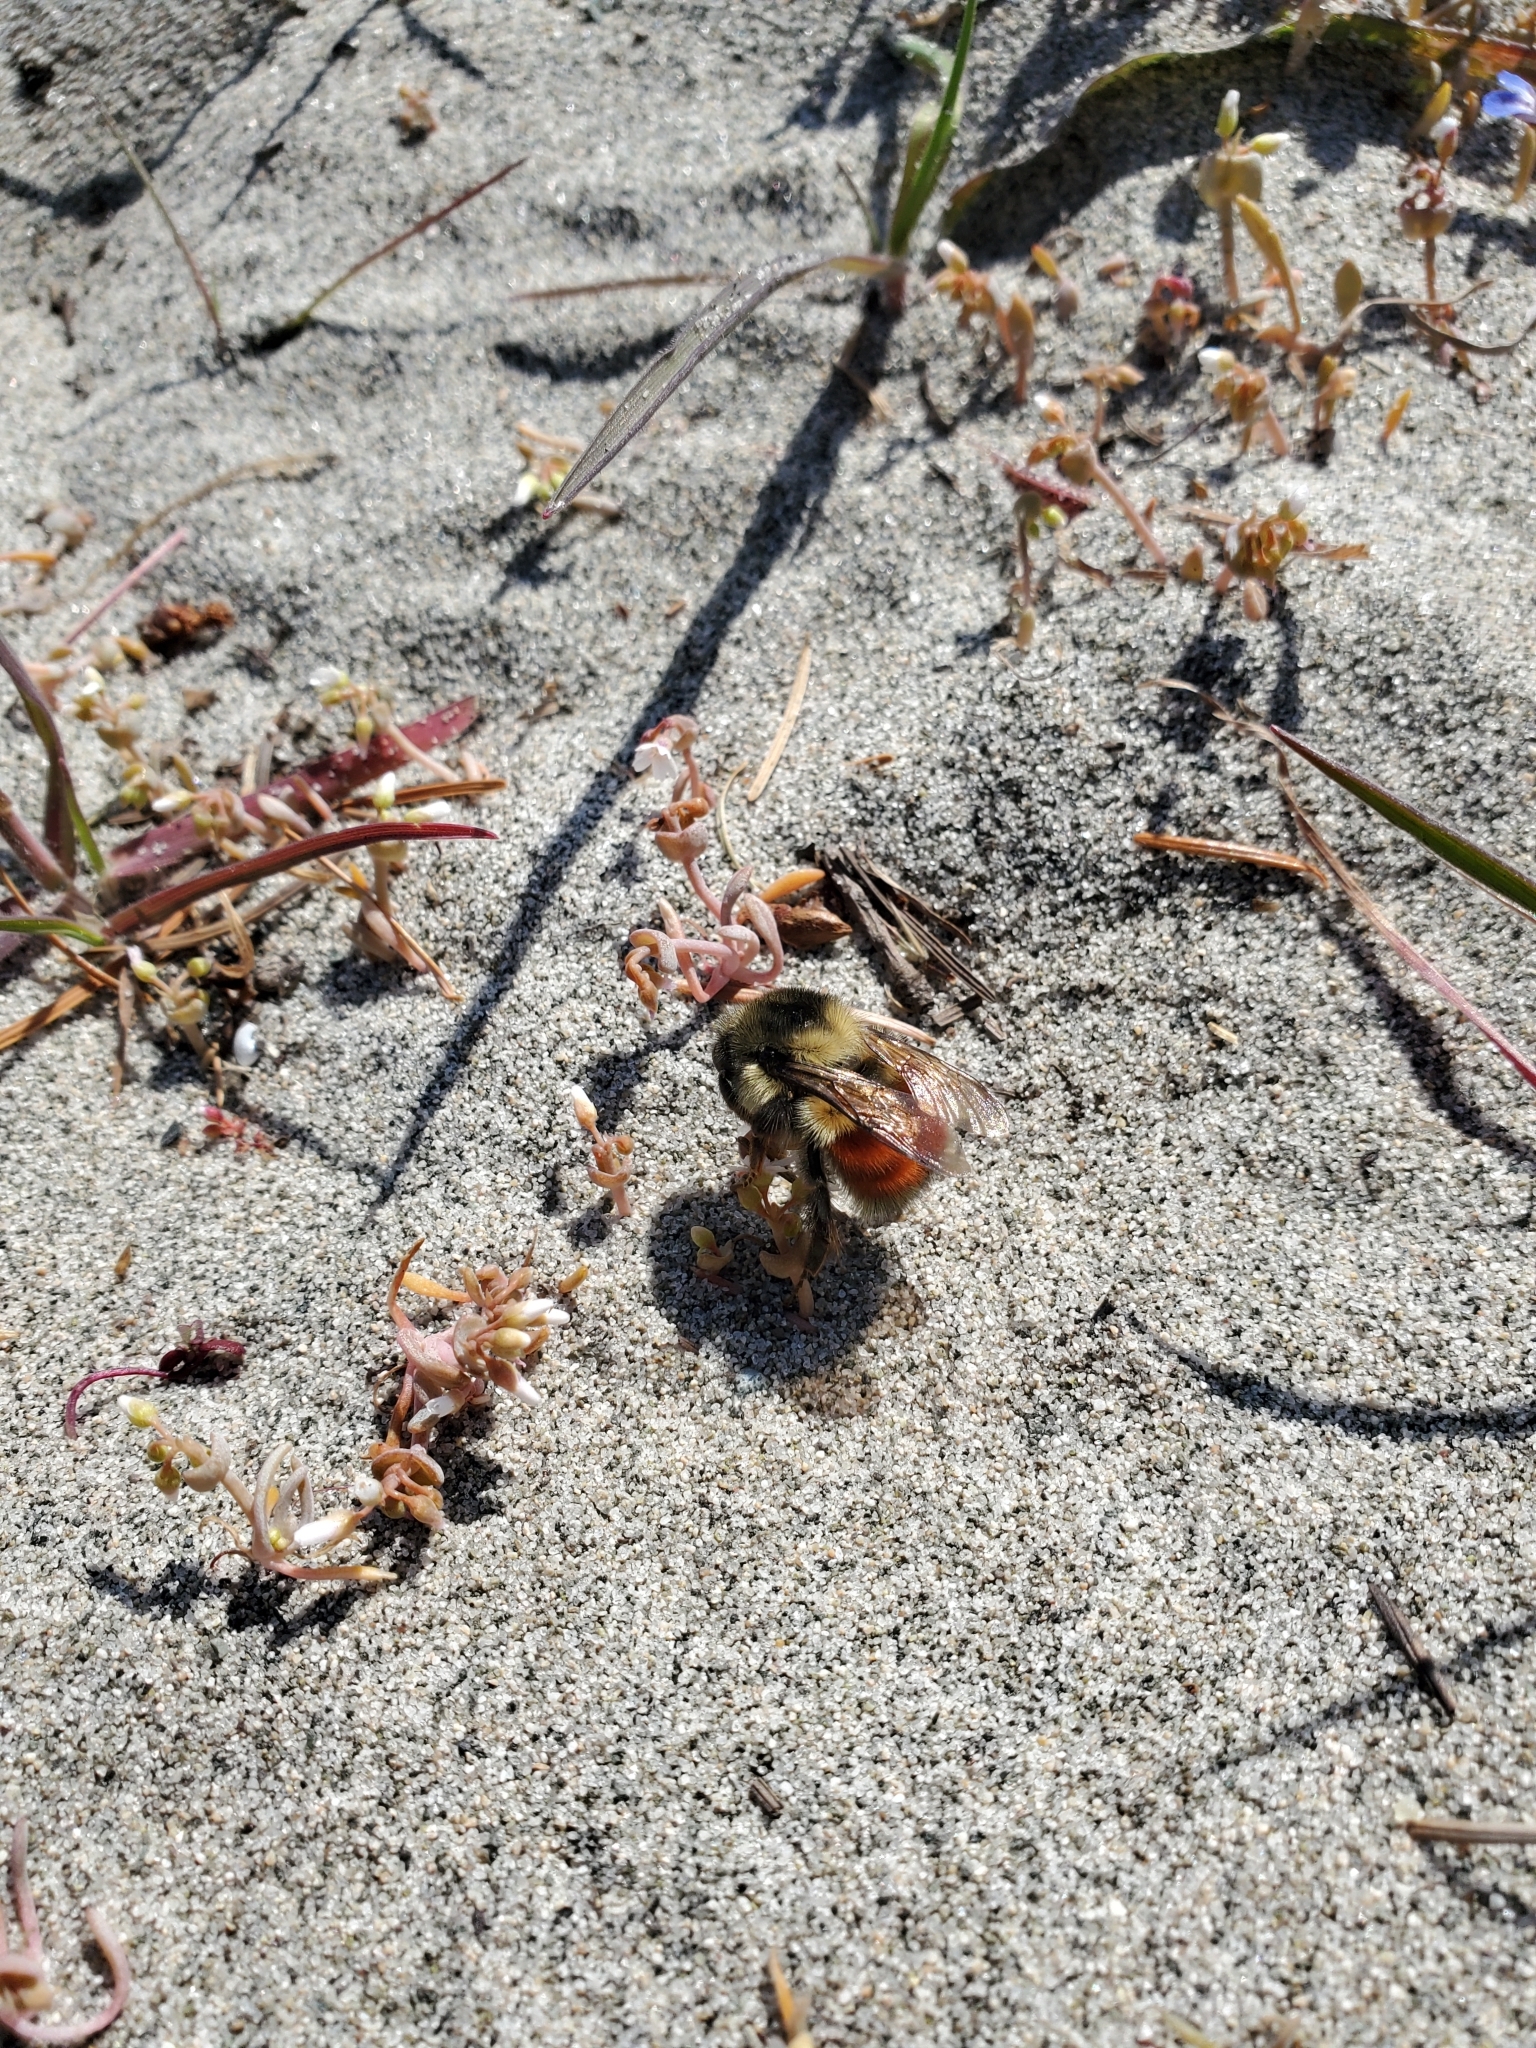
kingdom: Animalia
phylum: Arthropoda
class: Insecta
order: Hymenoptera
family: Apidae
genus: Bombus
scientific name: Bombus melanopygus
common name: Black tail bumble bee
